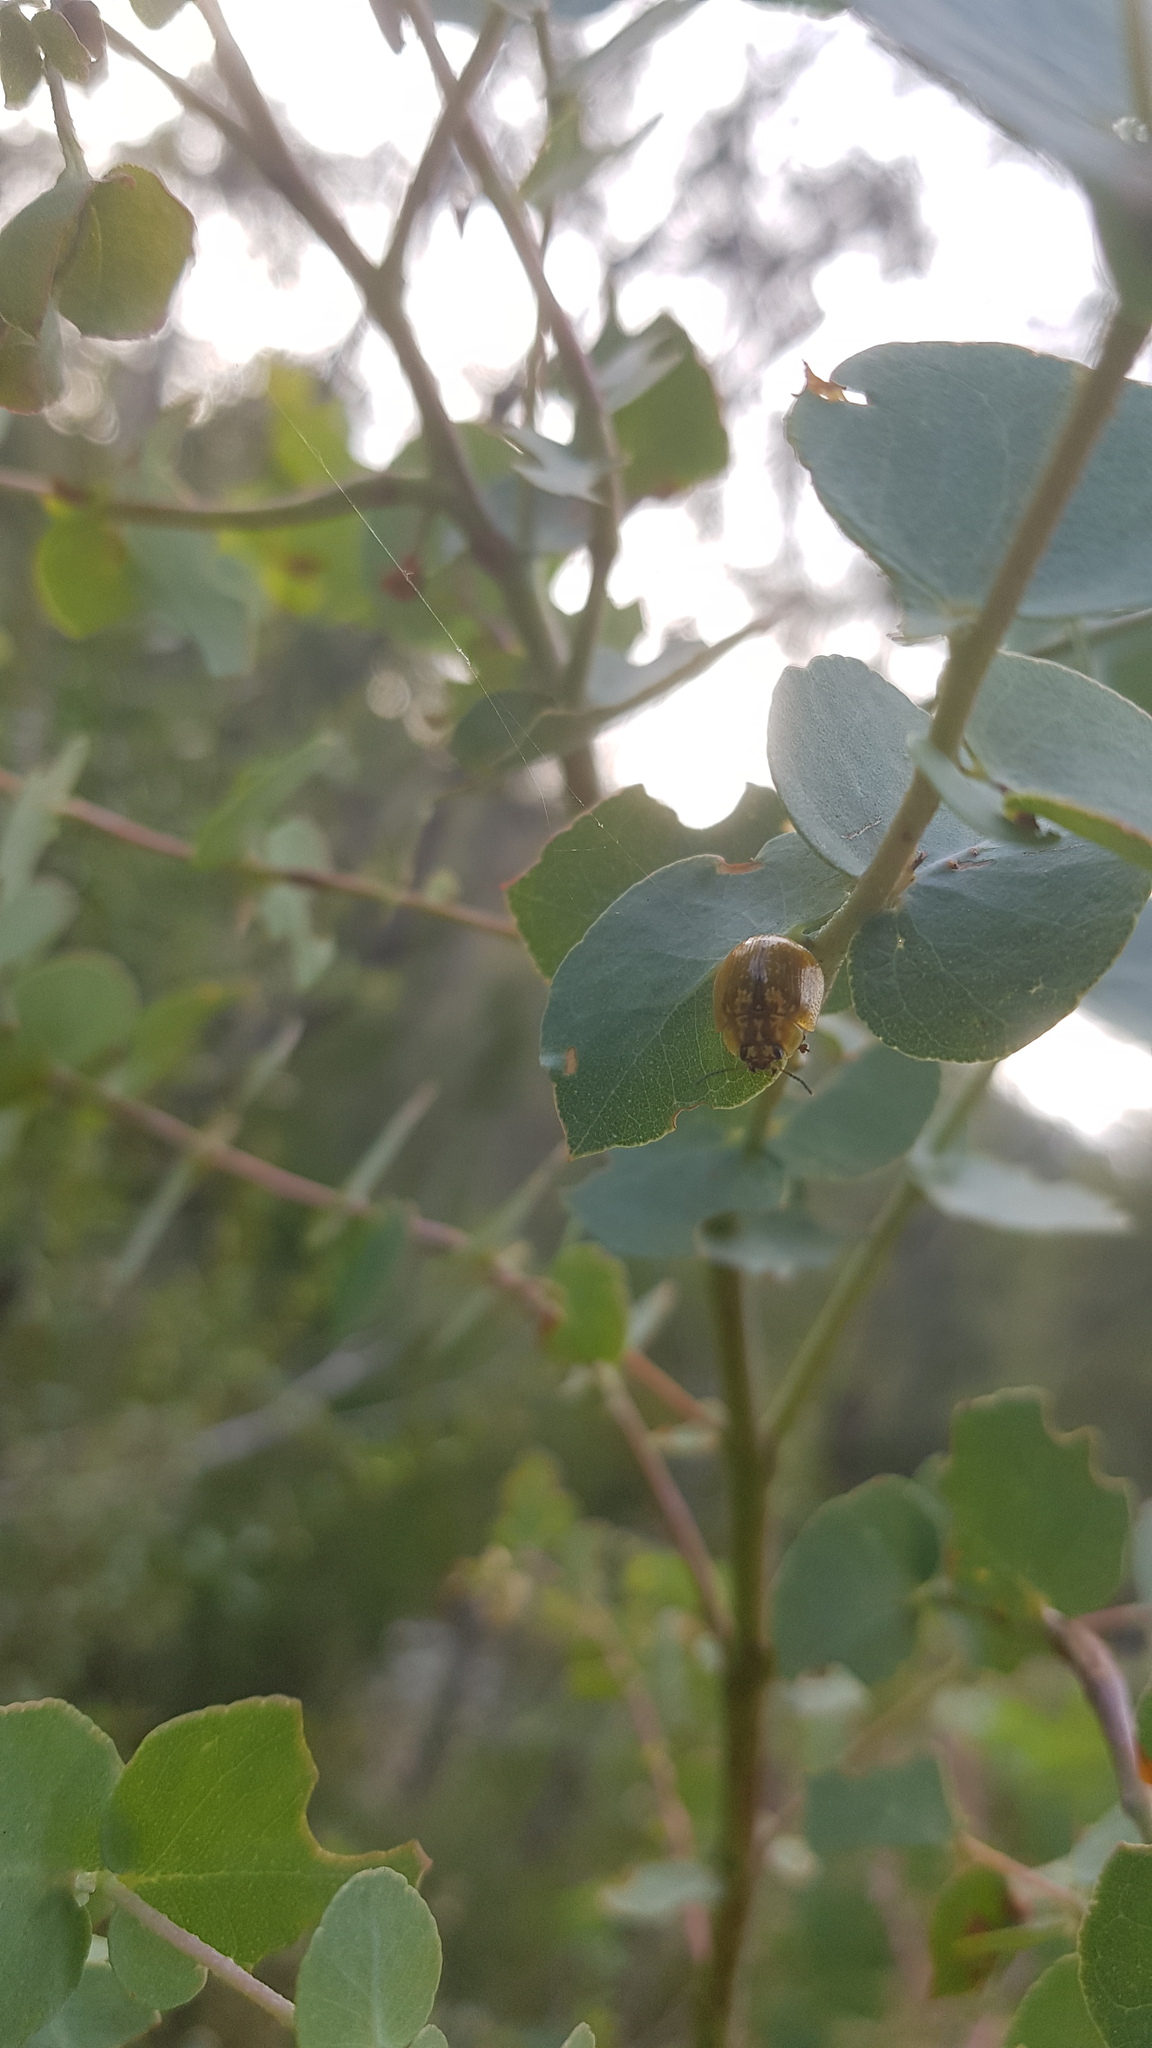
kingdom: Animalia
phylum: Arthropoda
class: Insecta
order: Coleoptera
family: Chrysomelidae
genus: Paropsisterna
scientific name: Paropsisterna cloelia
